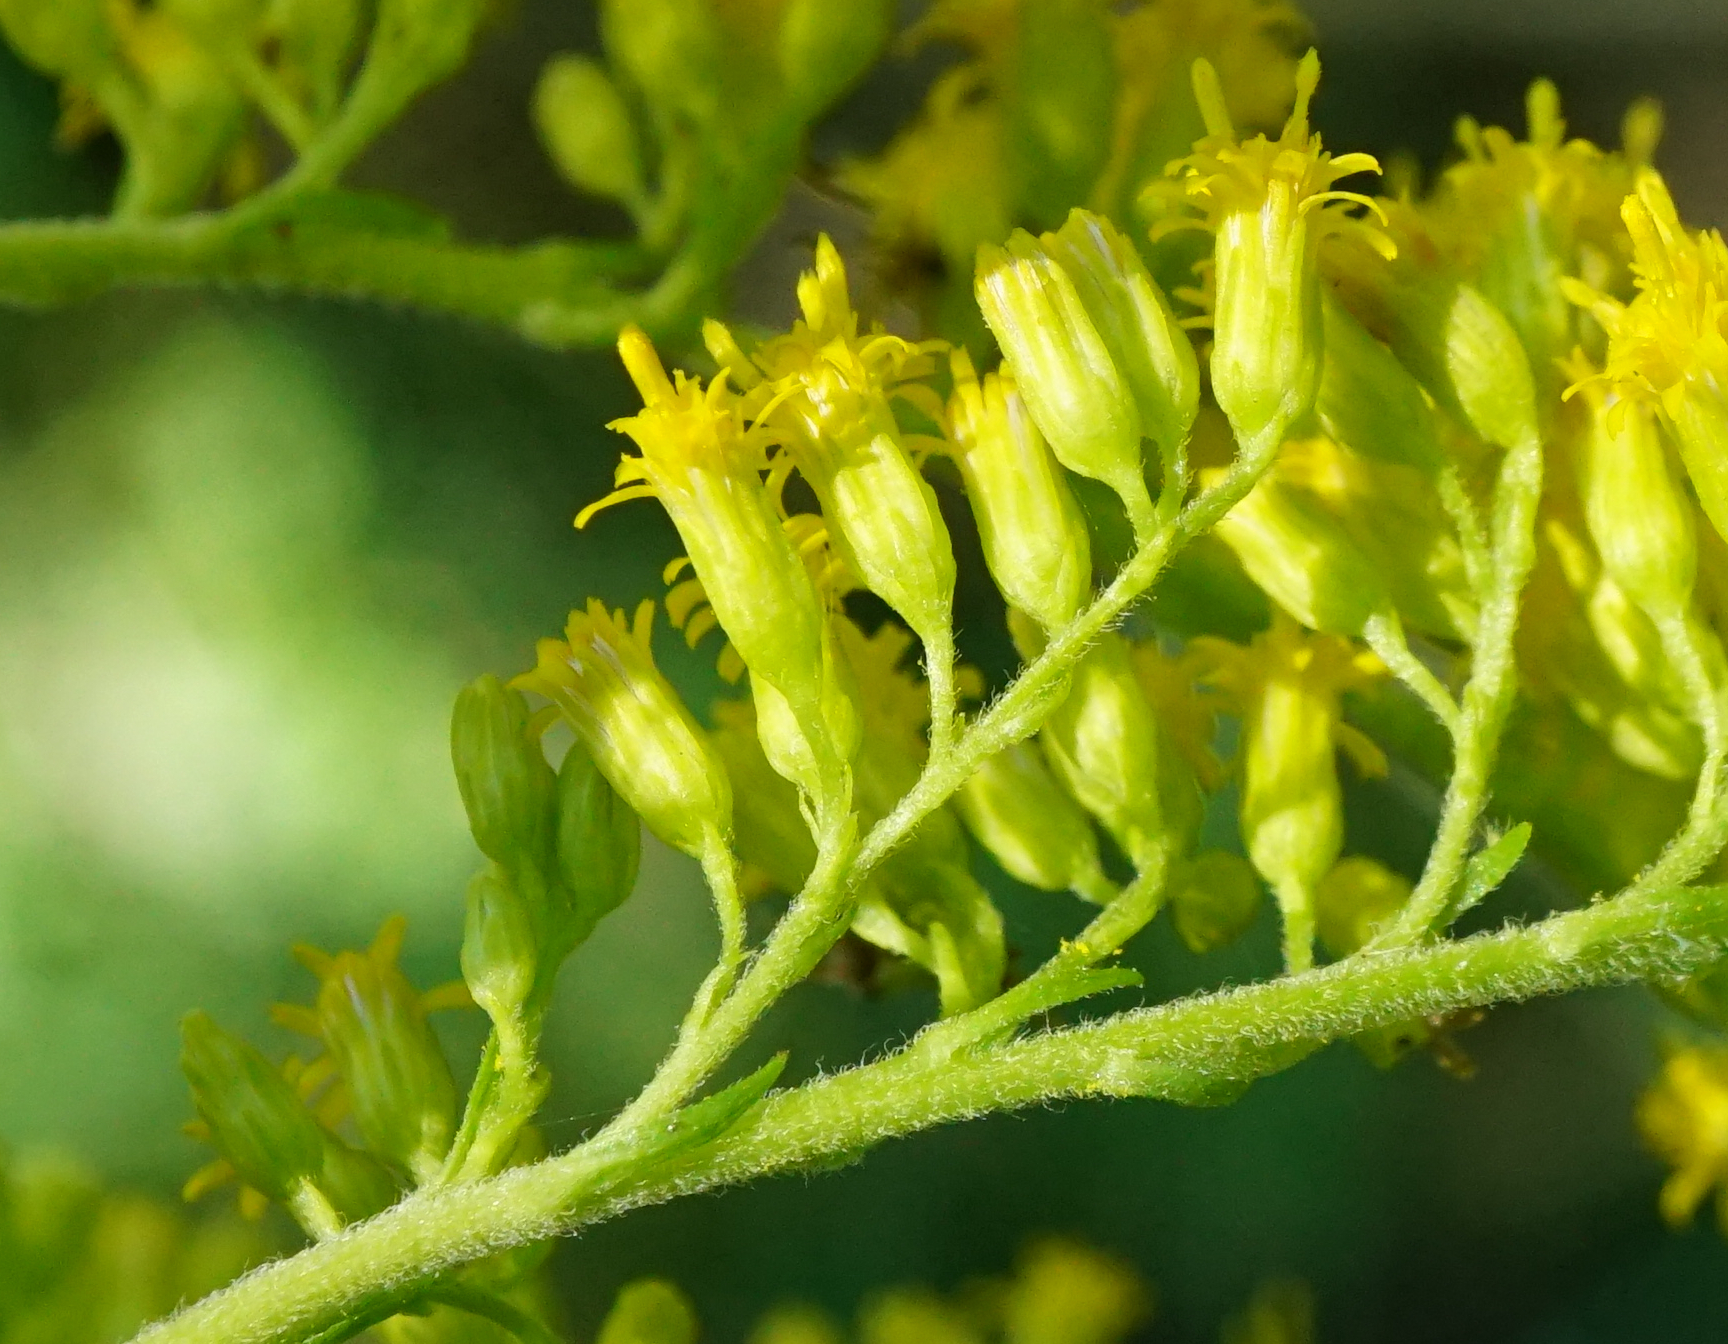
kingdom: Plantae
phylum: Tracheophyta
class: Magnoliopsida
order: Asterales
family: Asteraceae
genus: Solidago
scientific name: Solidago canadensis
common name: Canada goldenrod
